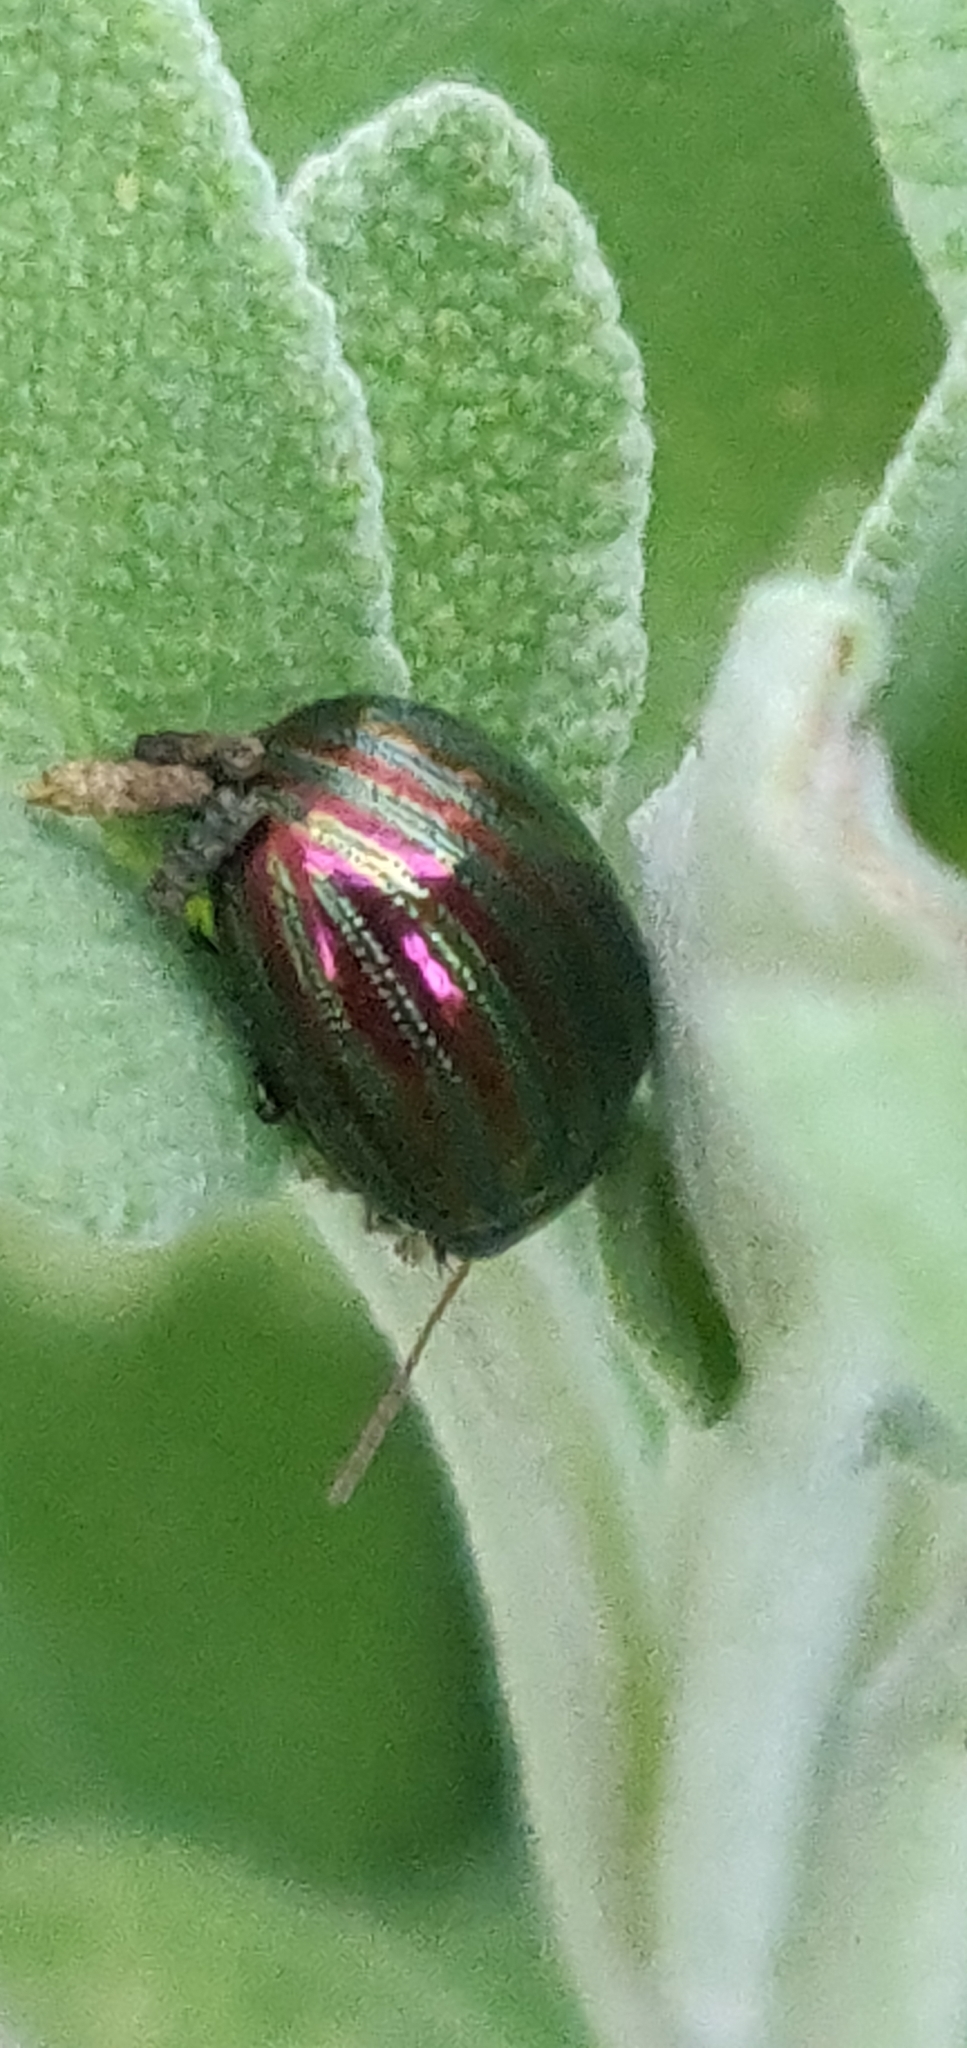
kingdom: Animalia
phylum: Arthropoda
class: Insecta
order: Coleoptera
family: Chrysomelidae
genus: Chrysolina
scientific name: Chrysolina americana
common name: Rosemary beetle
